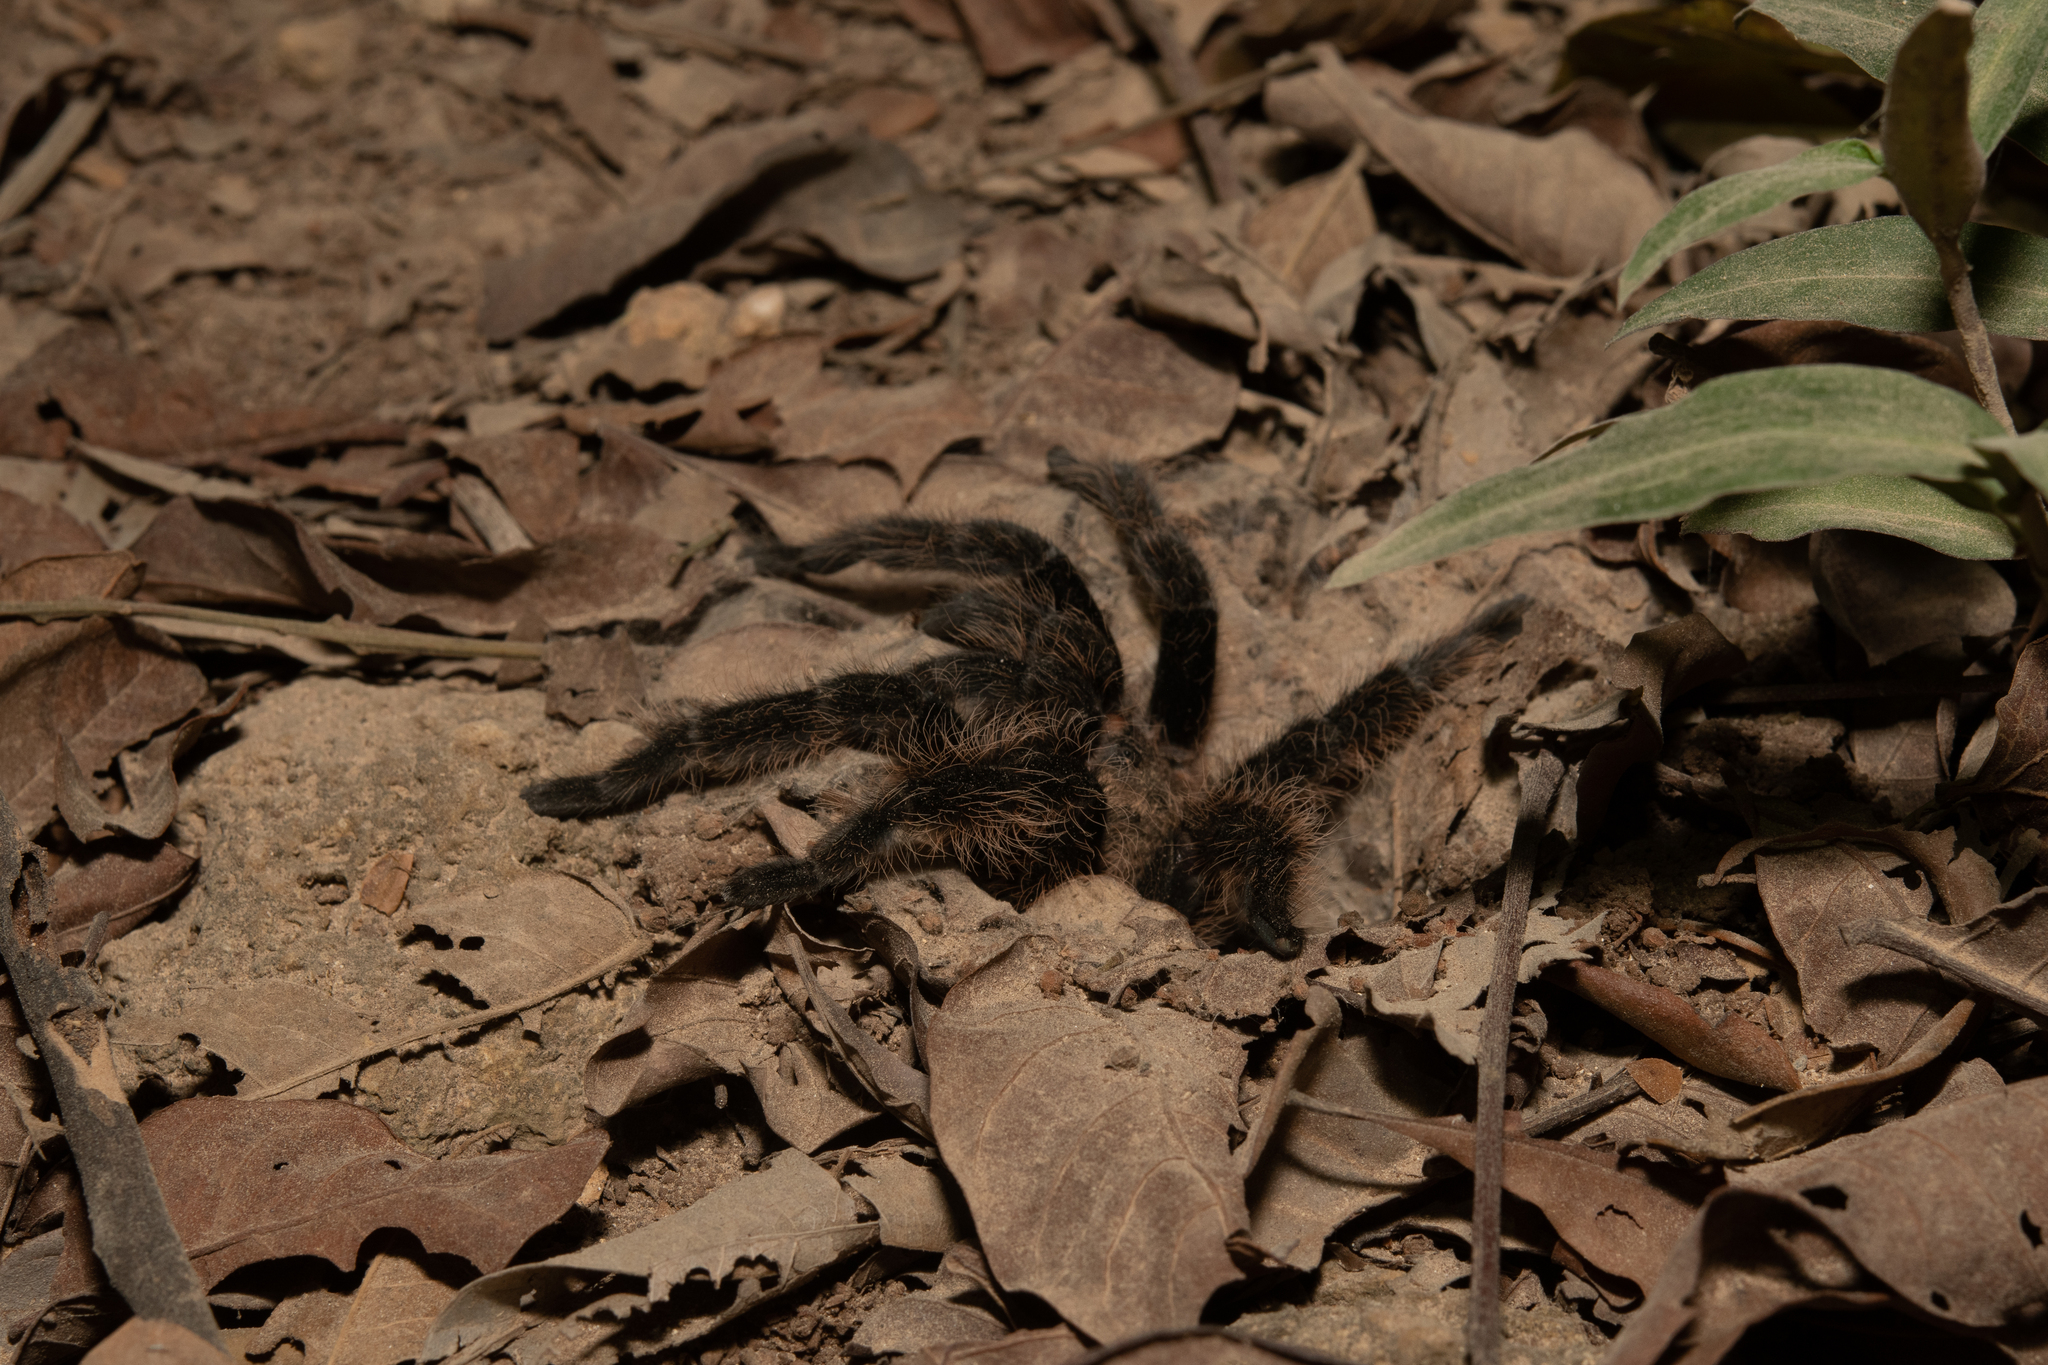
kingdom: Animalia
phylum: Arthropoda
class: Arachnida
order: Araneae
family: Theraphosidae
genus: Tliltocatl
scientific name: Tliltocatl albopilosus
